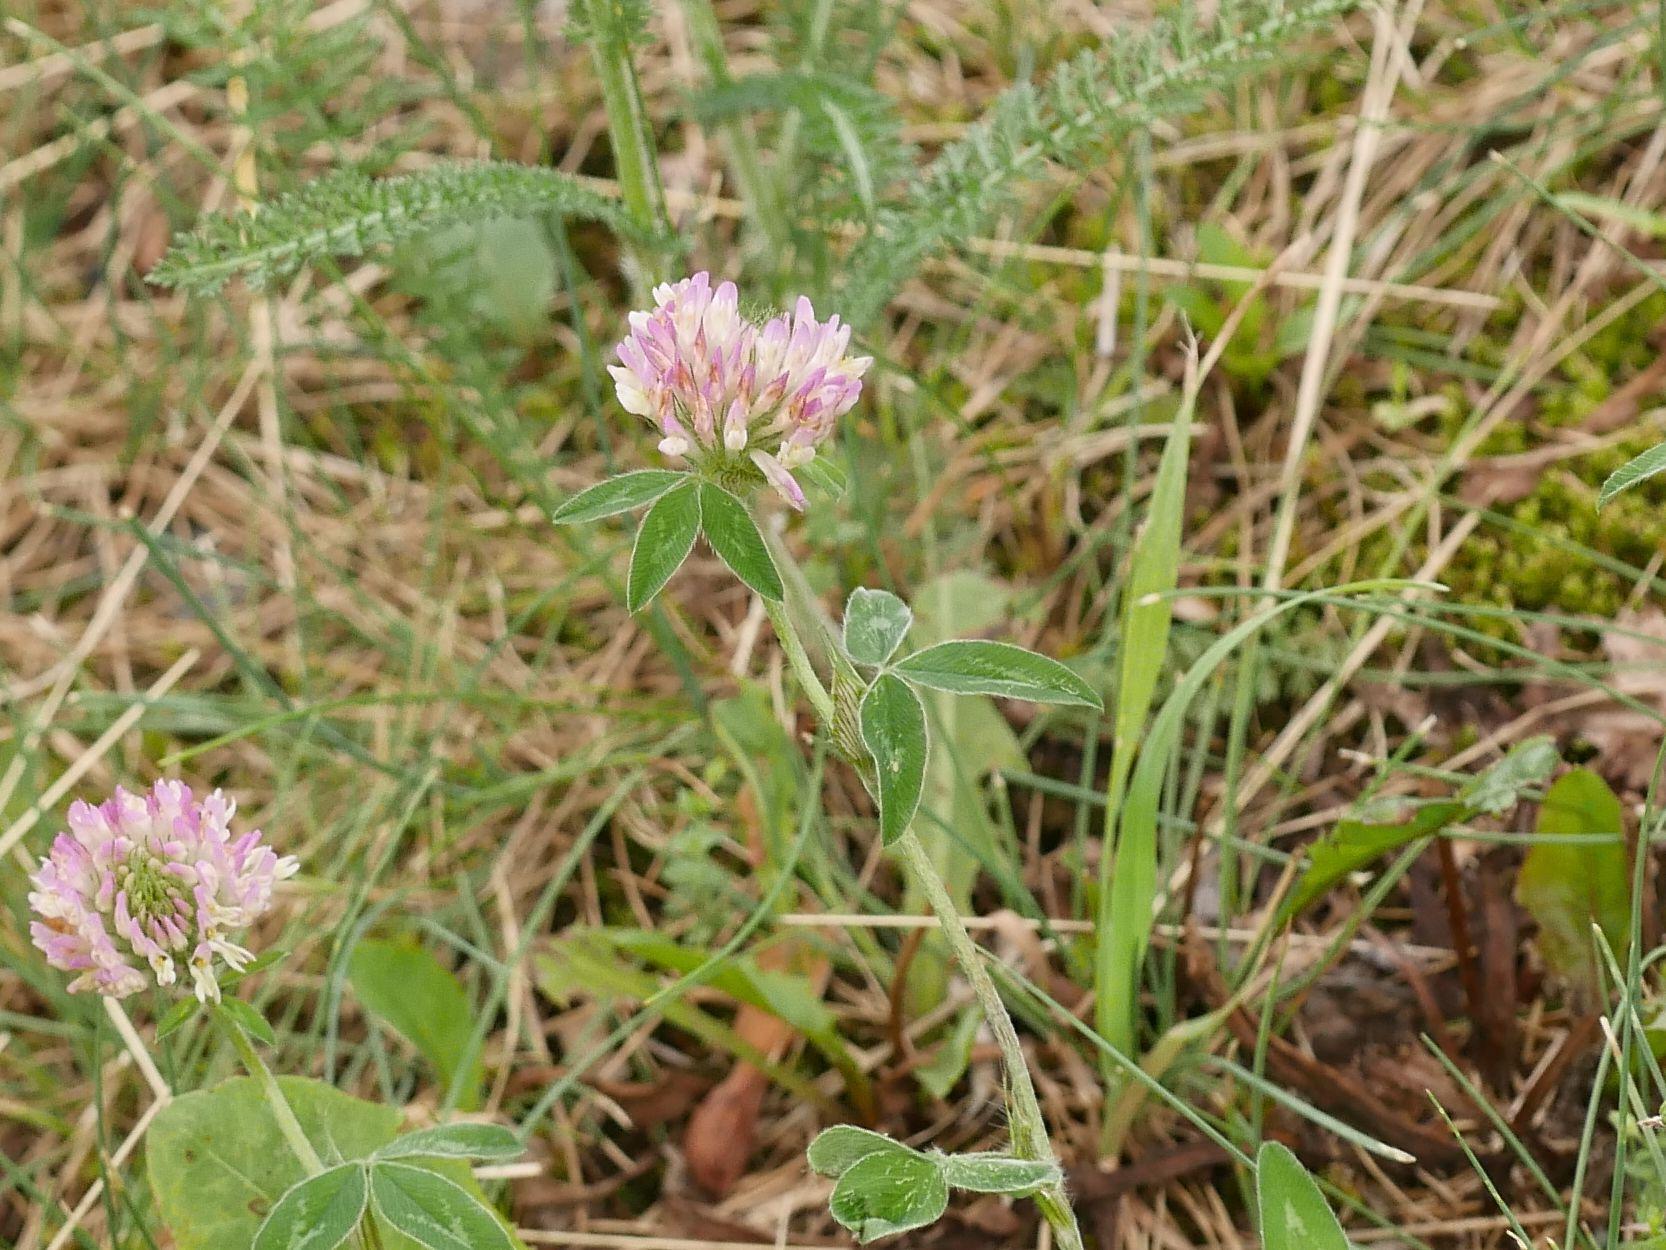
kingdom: Plantae
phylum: Tracheophyta
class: Magnoliopsida
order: Fabales
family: Fabaceae
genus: Trifolium
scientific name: Trifolium pratense
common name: Red clover
